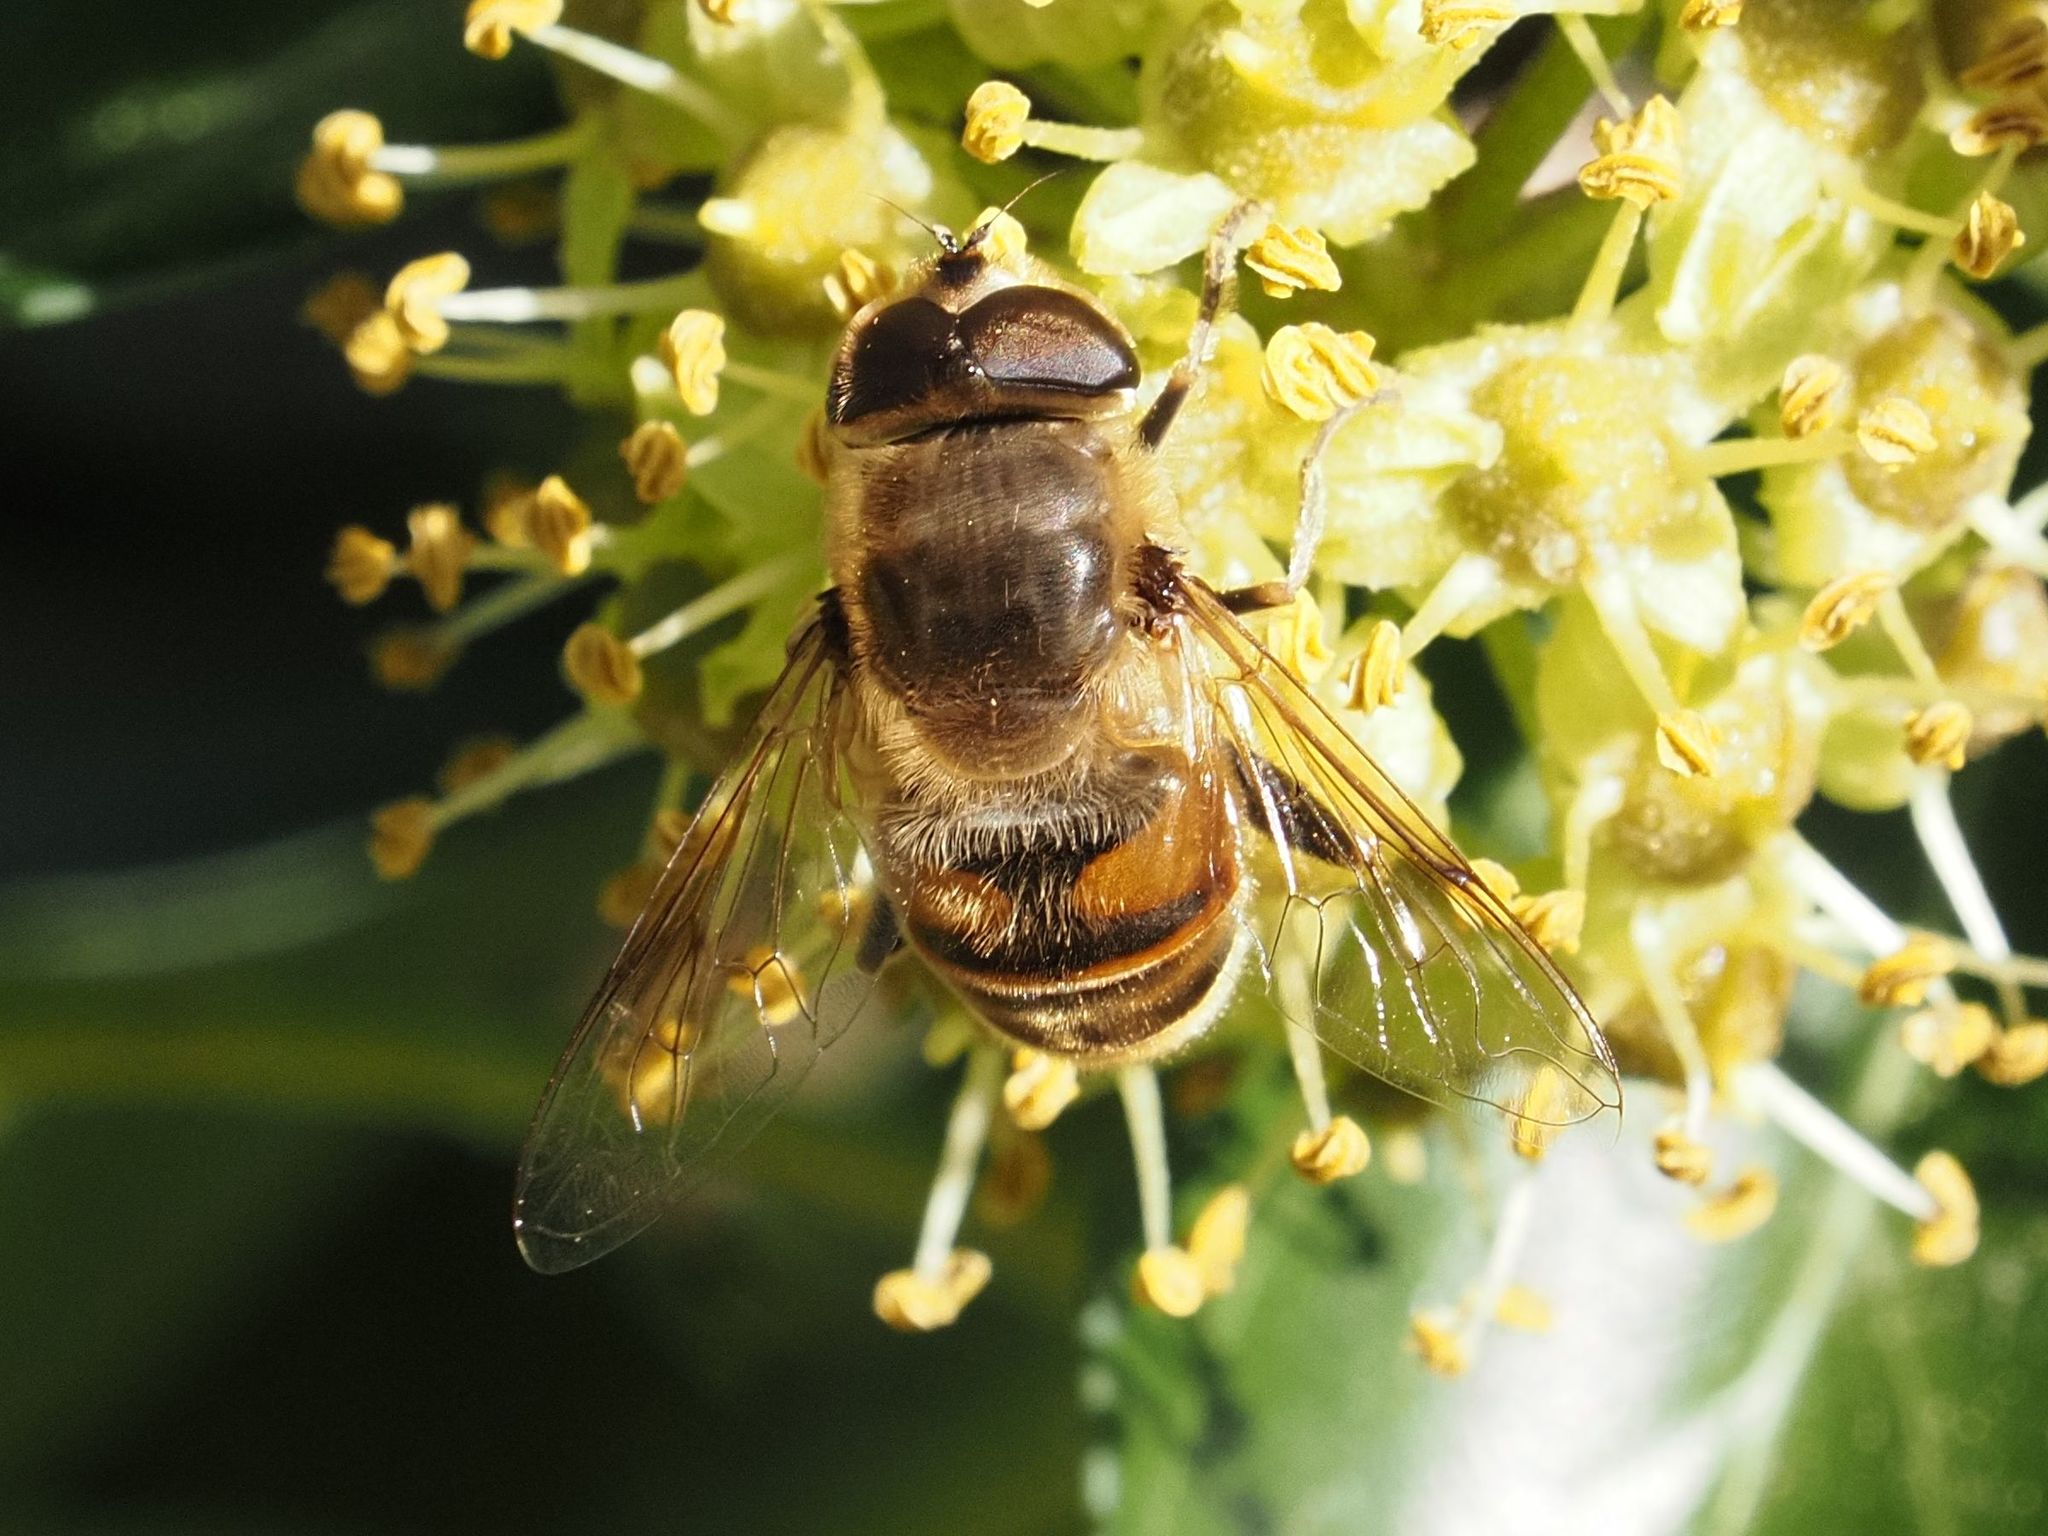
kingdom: Animalia
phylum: Arthropoda
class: Insecta
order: Diptera
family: Syrphidae
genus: Eristalis
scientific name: Eristalis tenax
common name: Drone fly
